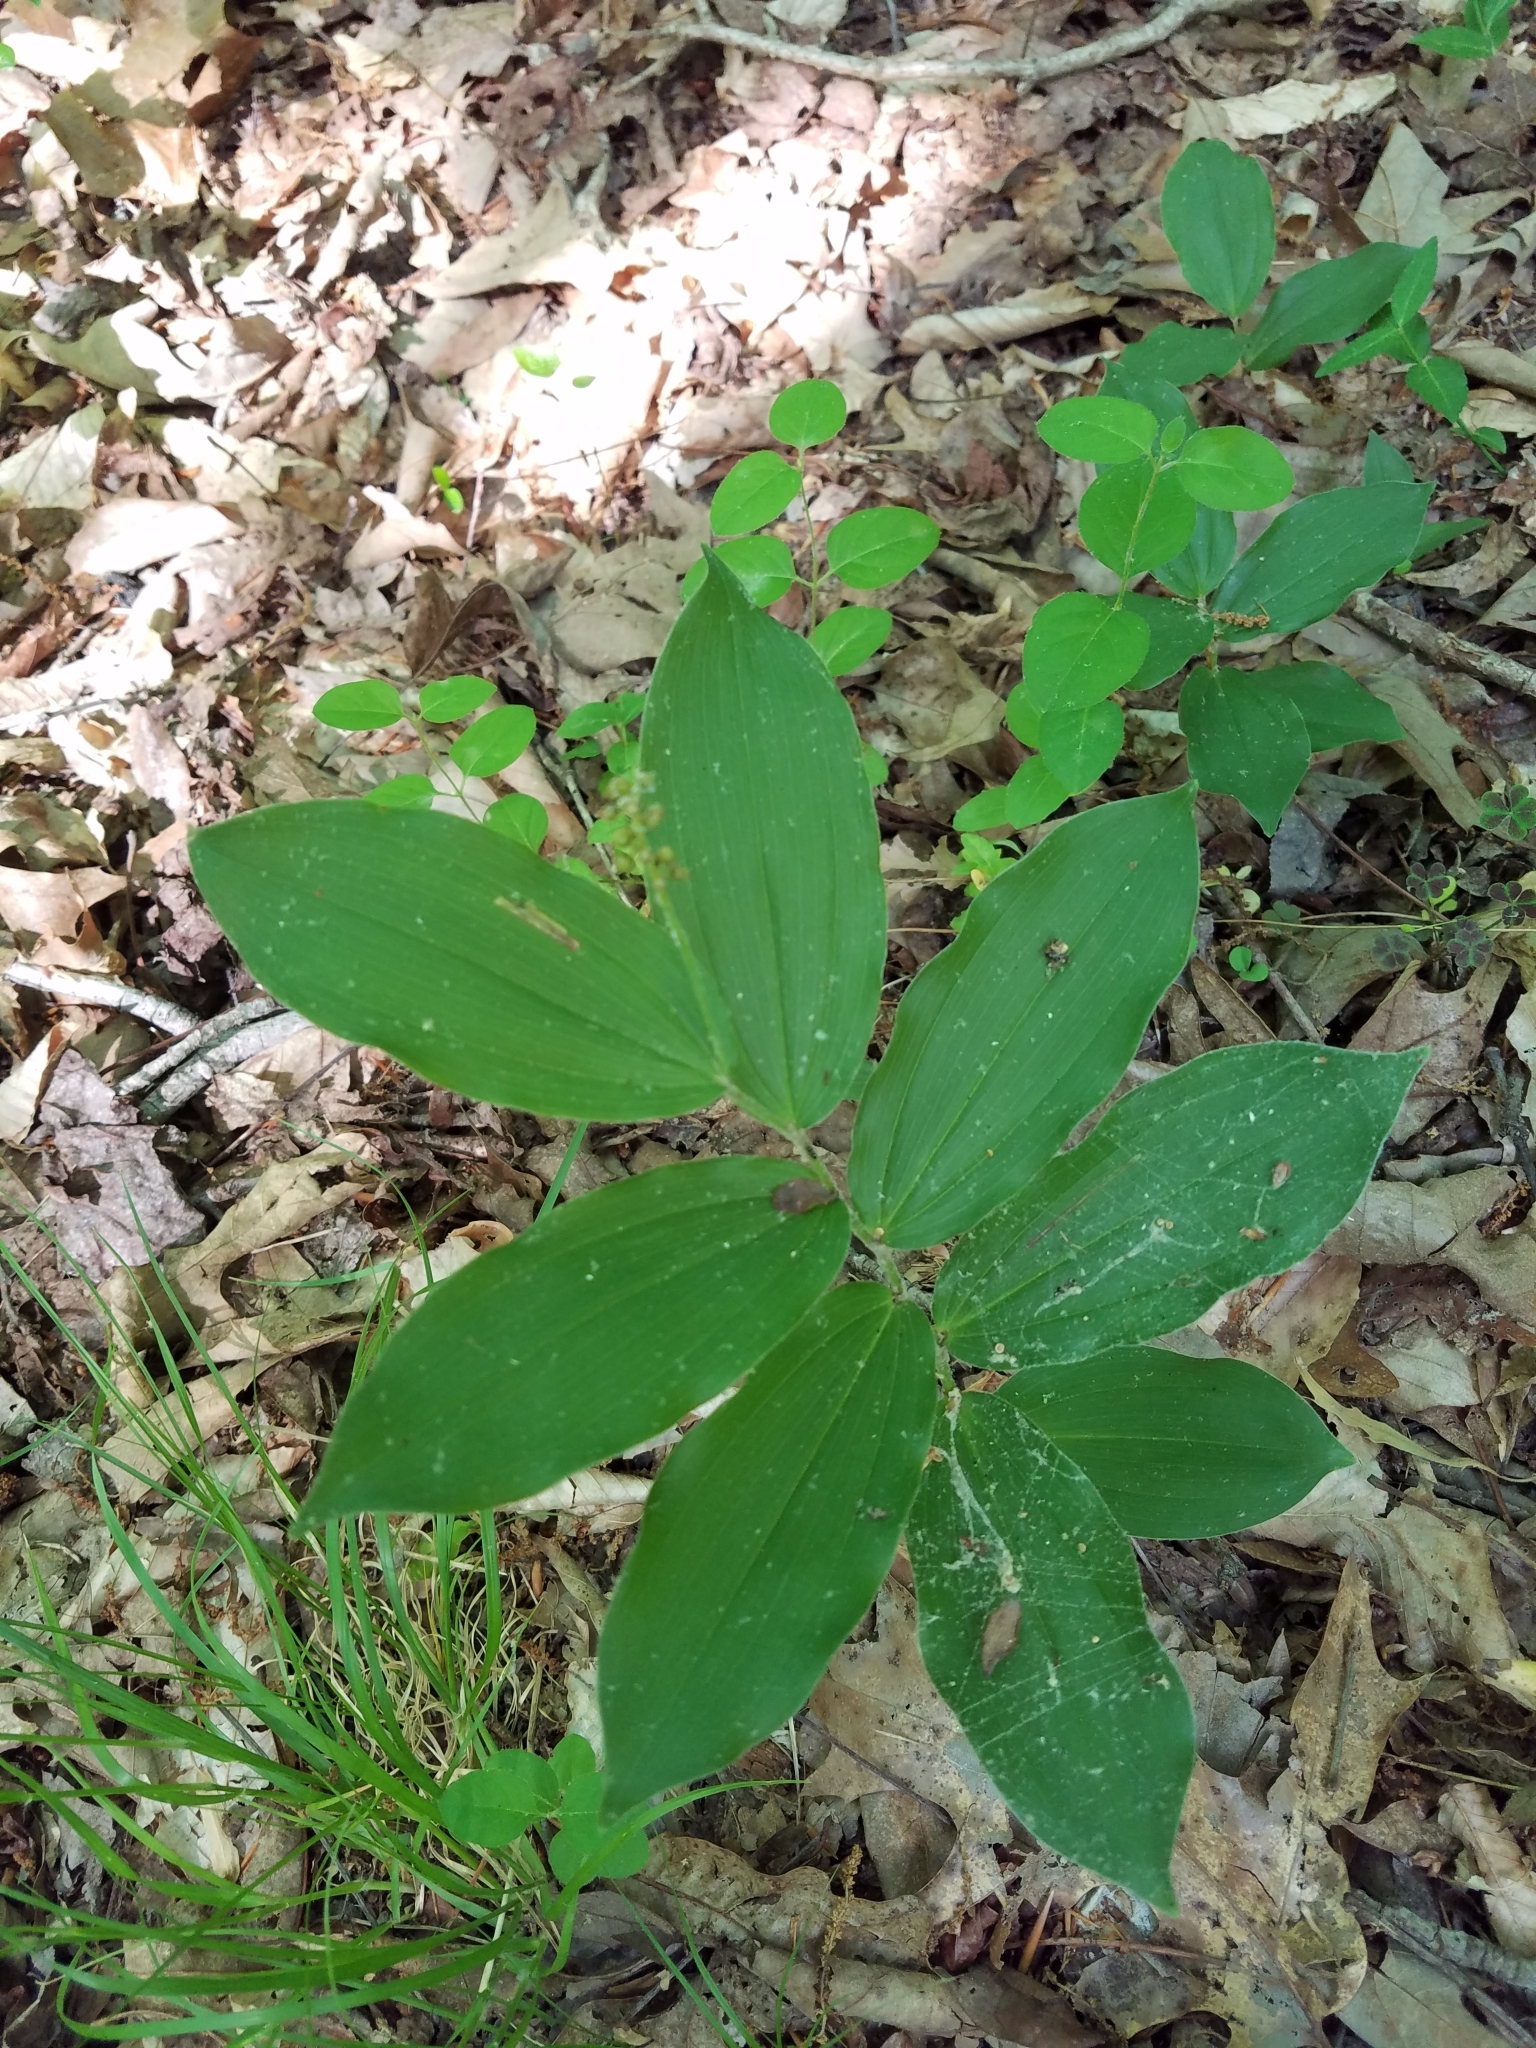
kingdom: Plantae
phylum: Tracheophyta
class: Liliopsida
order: Asparagales
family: Asparagaceae
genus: Maianthemum
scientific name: Maianthemum racemosum
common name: False spikenard
